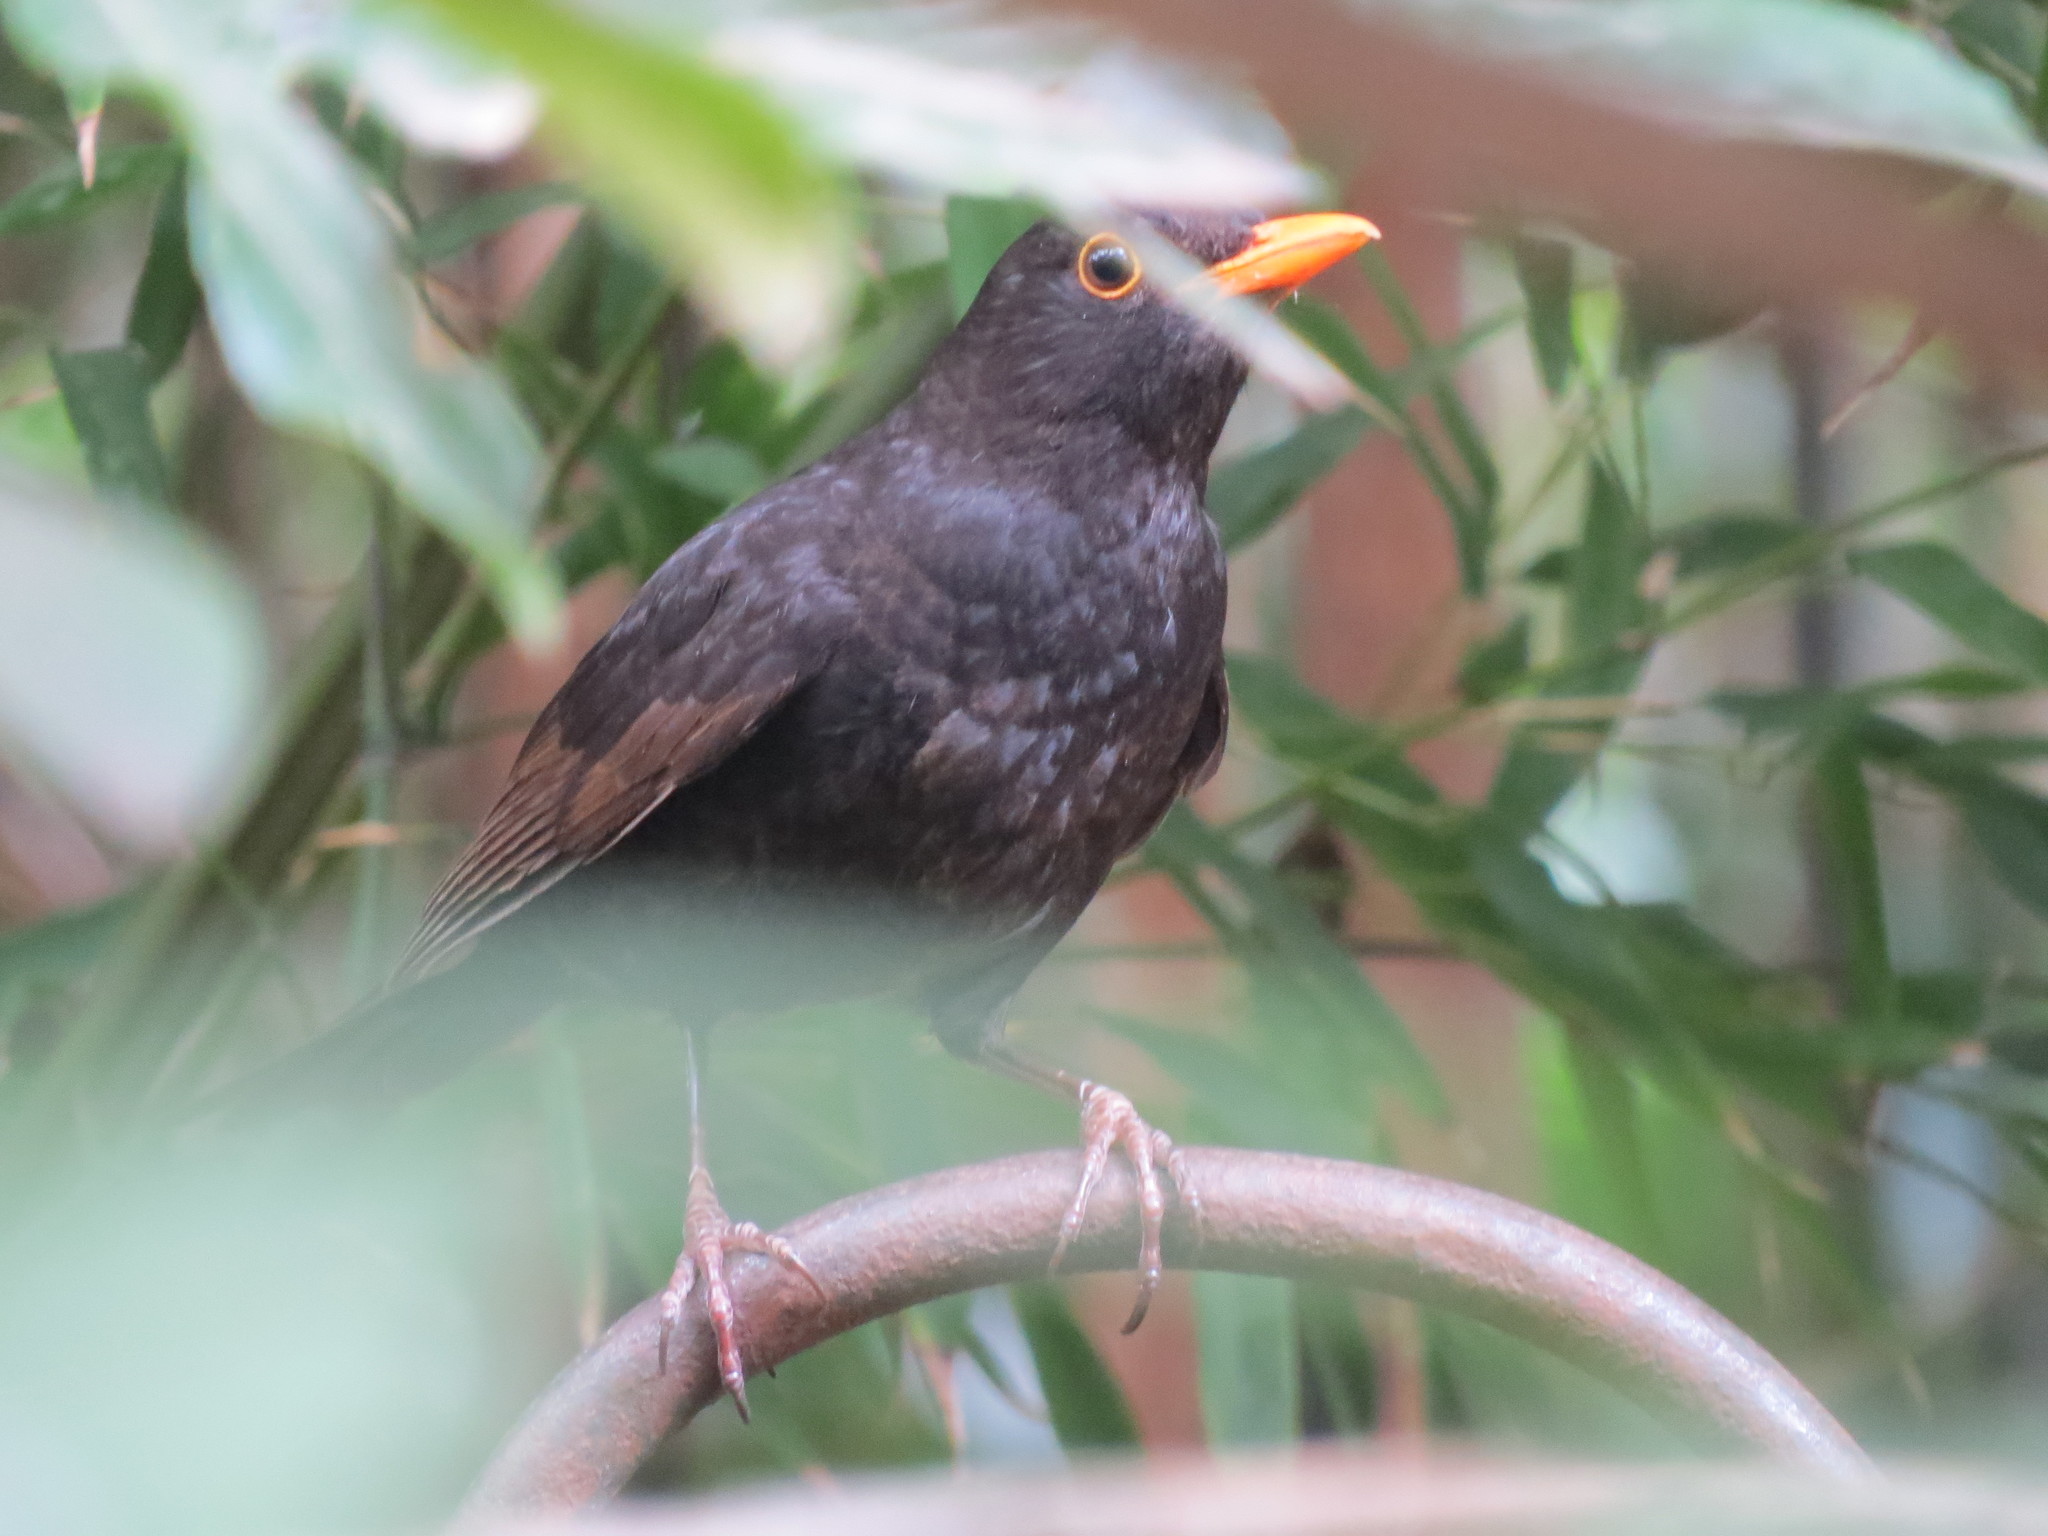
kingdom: Animalia
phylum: Chordata
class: Aves
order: Passeriformes
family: Turdidae
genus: Turdus
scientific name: Turdus merula
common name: Common blackbird
